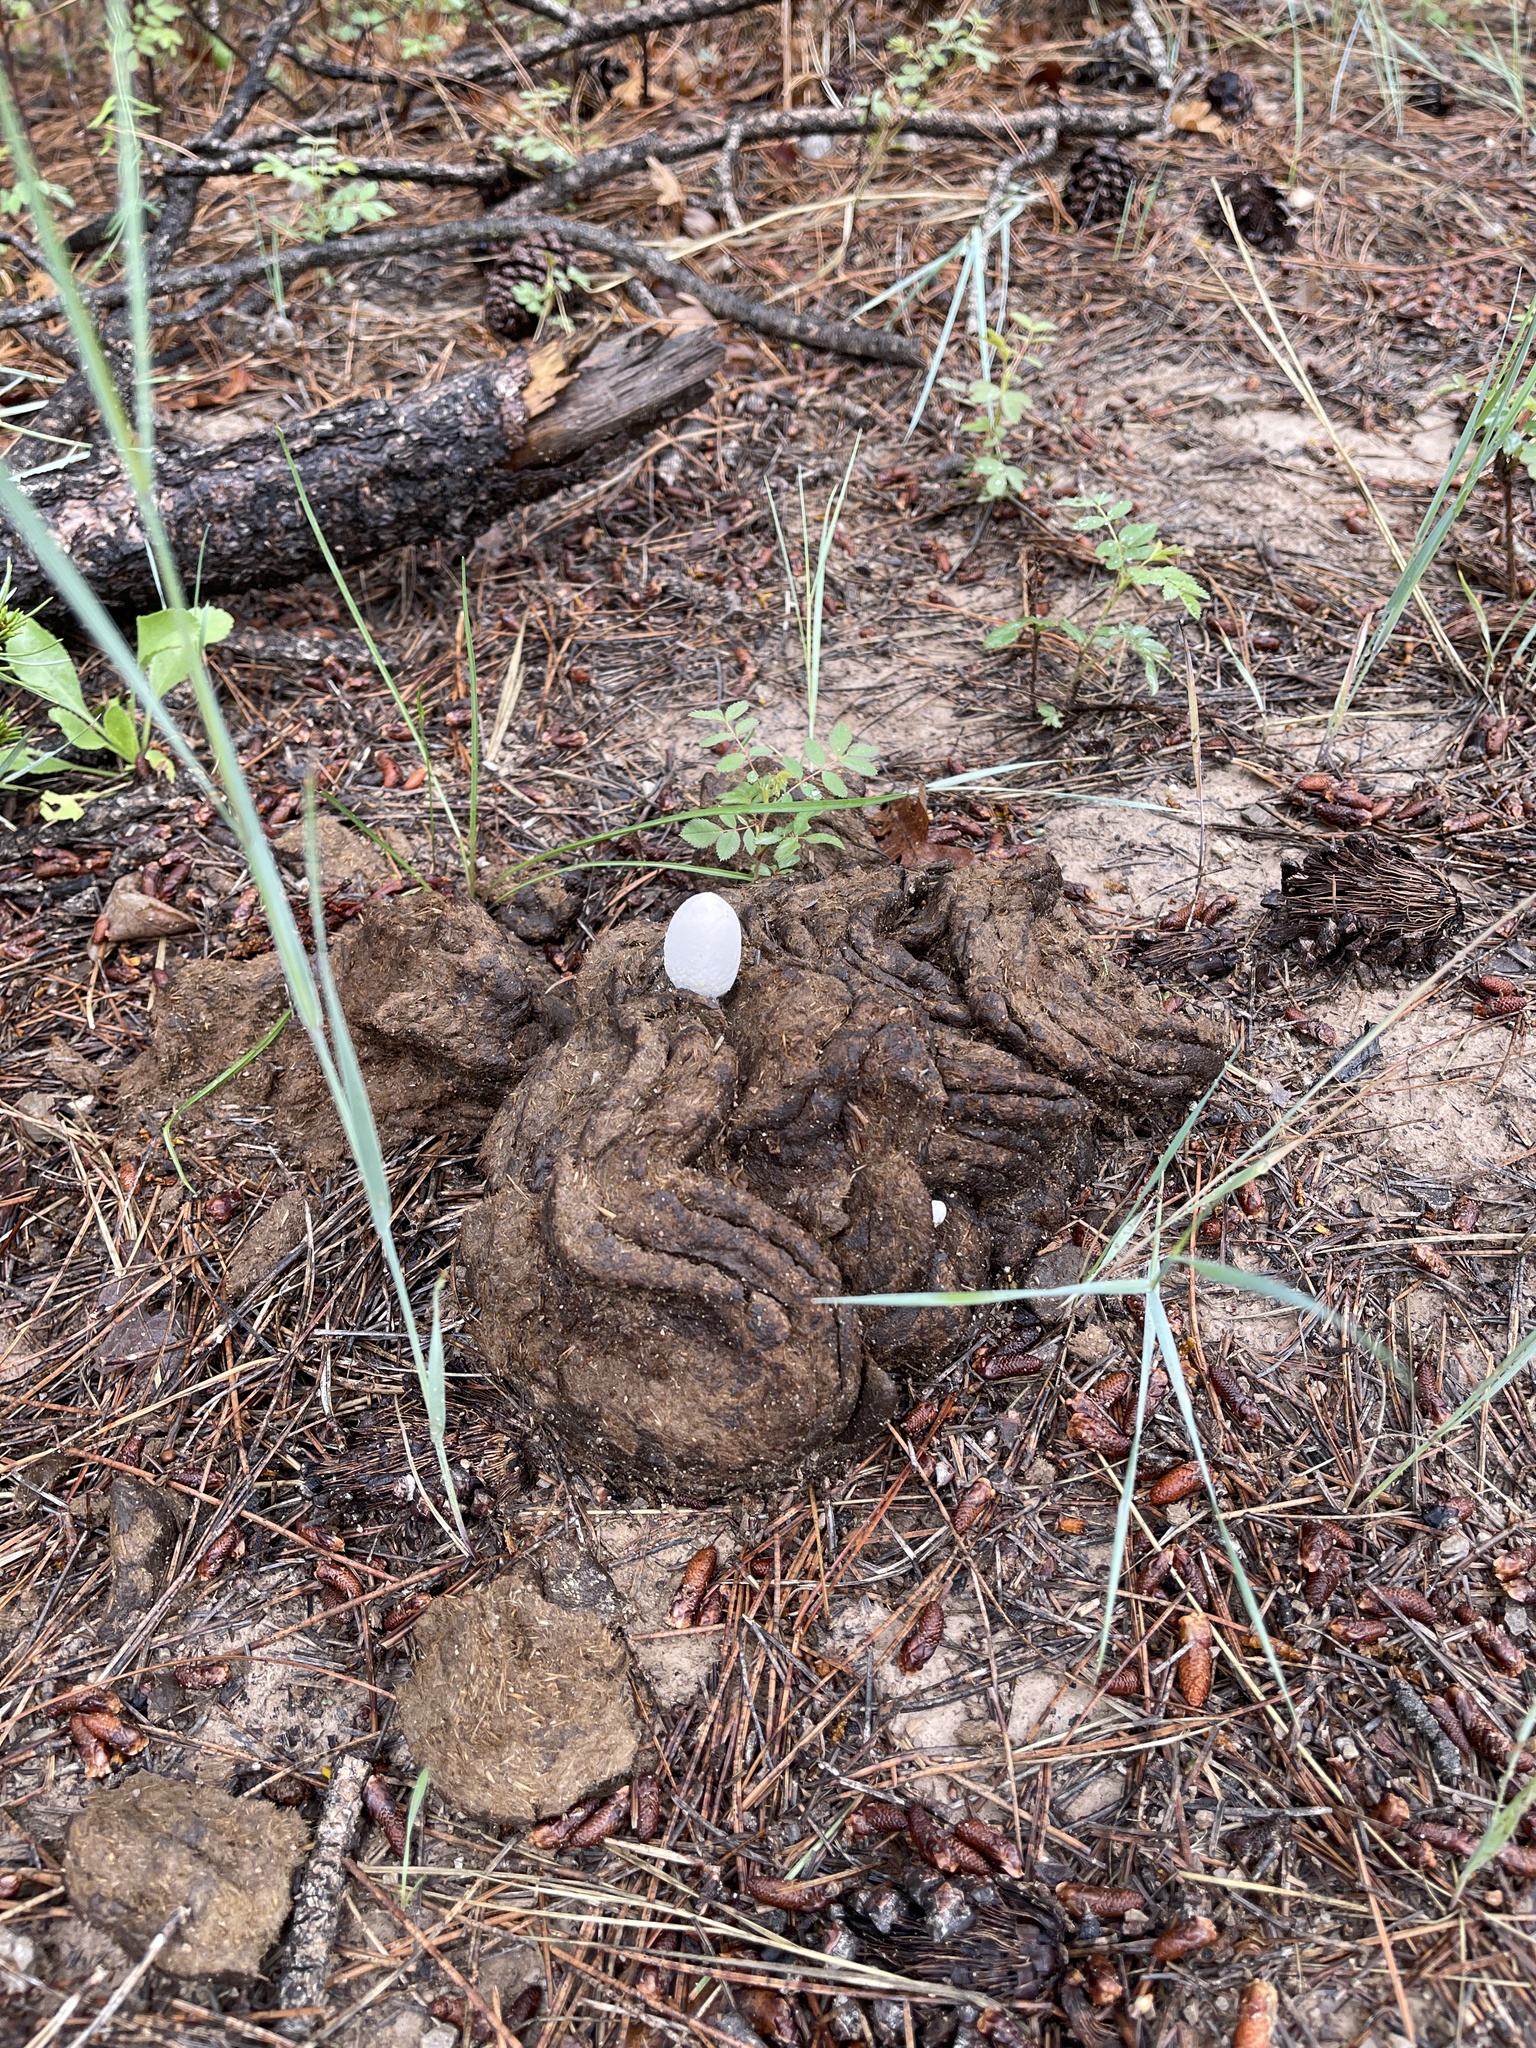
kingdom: Fungi
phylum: Basidiomycota
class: Agaricomycetes
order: Agaricales
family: Psathyrellaceae
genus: Coprinopsis
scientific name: Coprinopsis nivea
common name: Snowy inkcap
